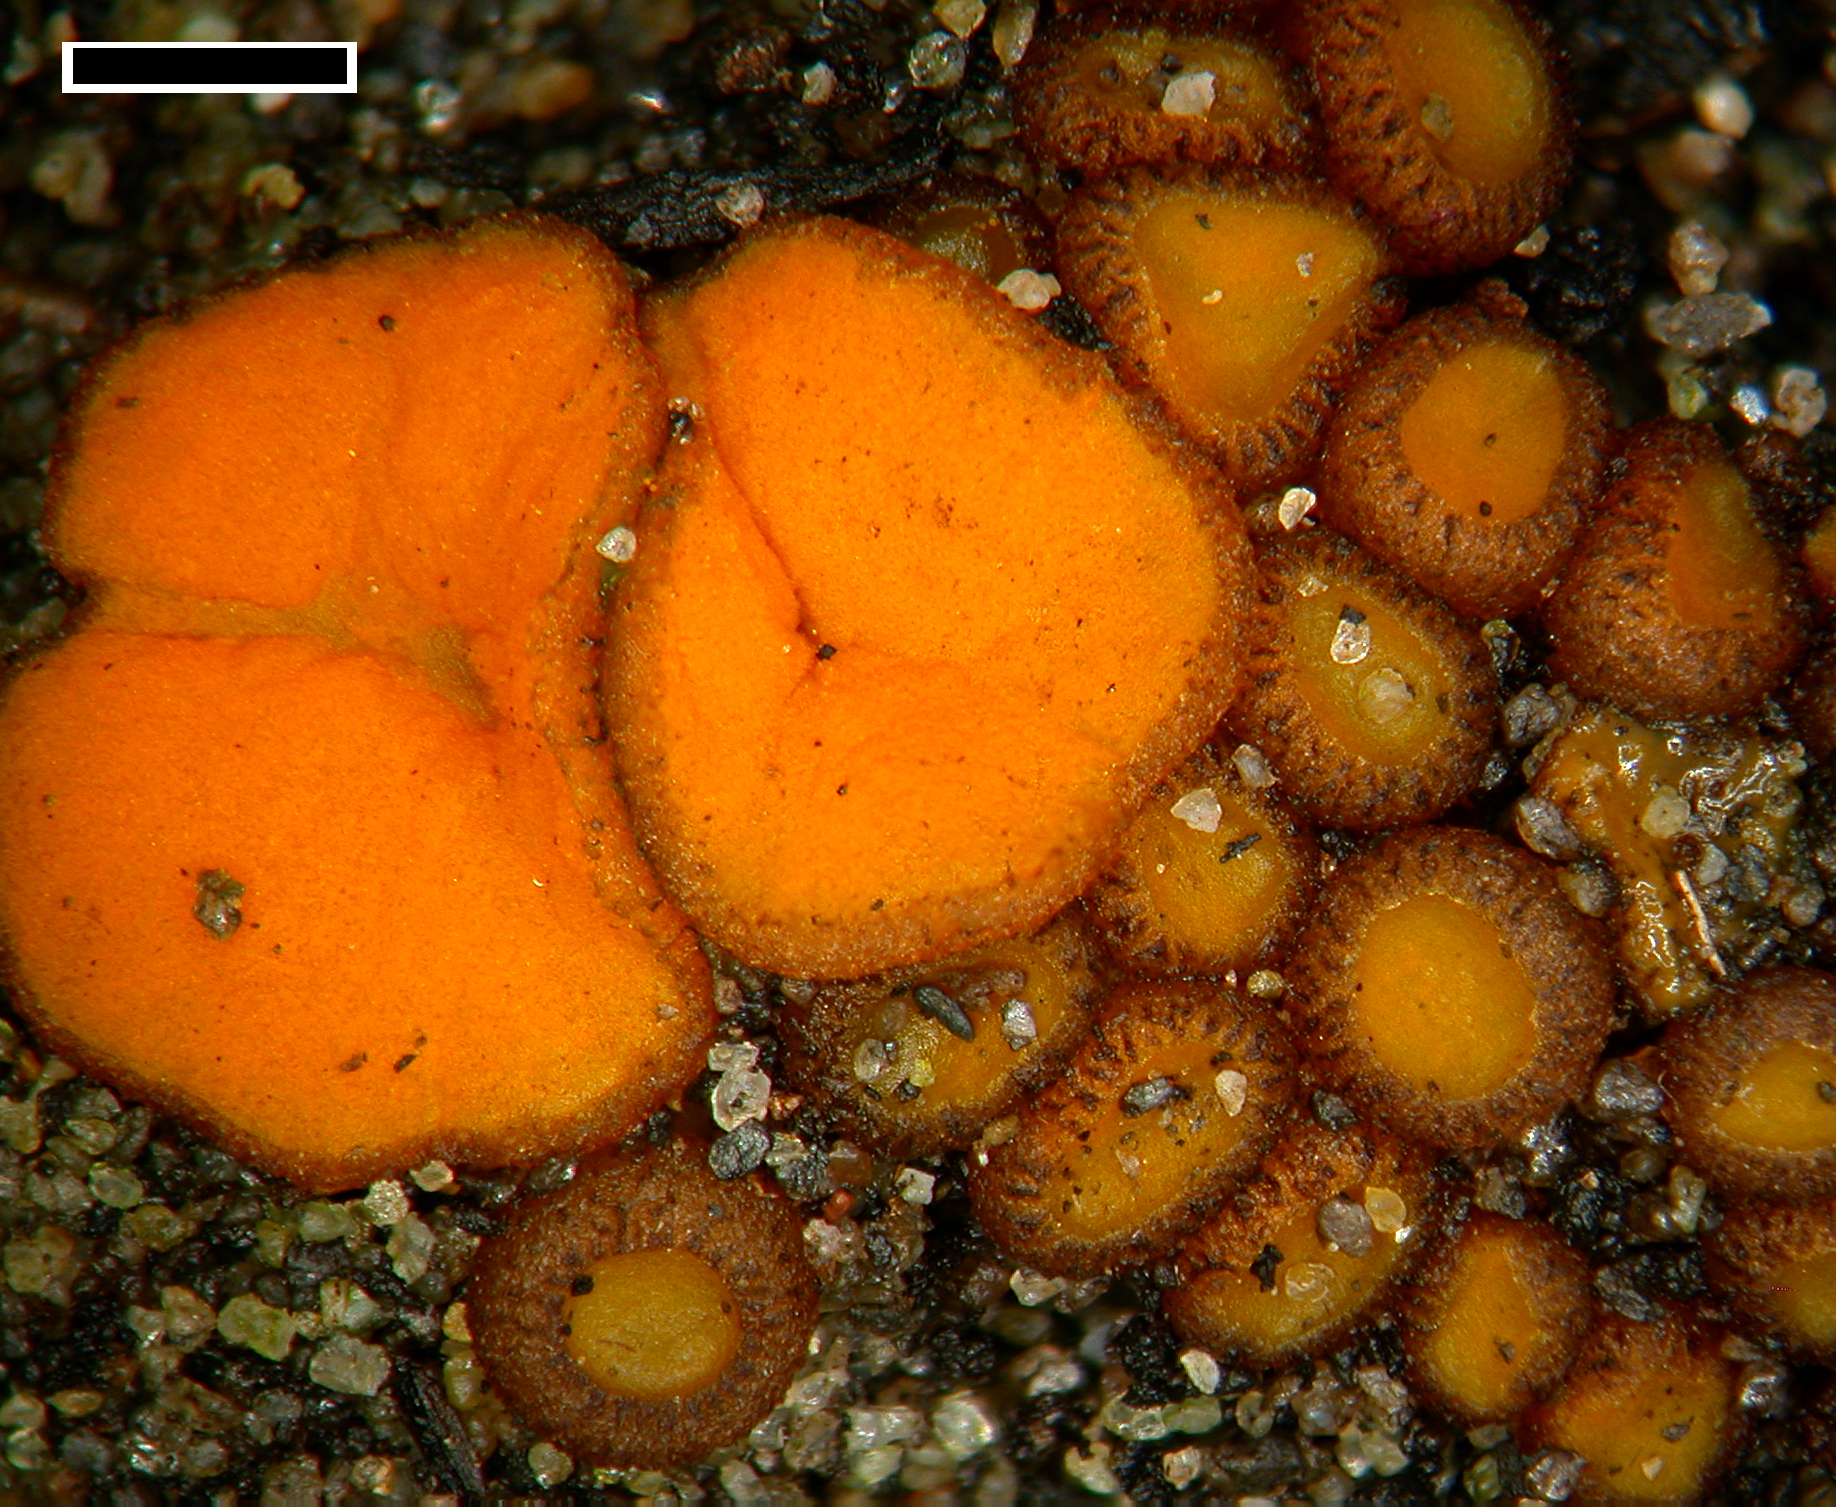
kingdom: Fungi
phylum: Ascomycota
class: Pezizomycetes
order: Pezizales
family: Pyronemataceae
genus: Anthracobia
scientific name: Anthracobia macrocystis
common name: Charcoal goldeneye
